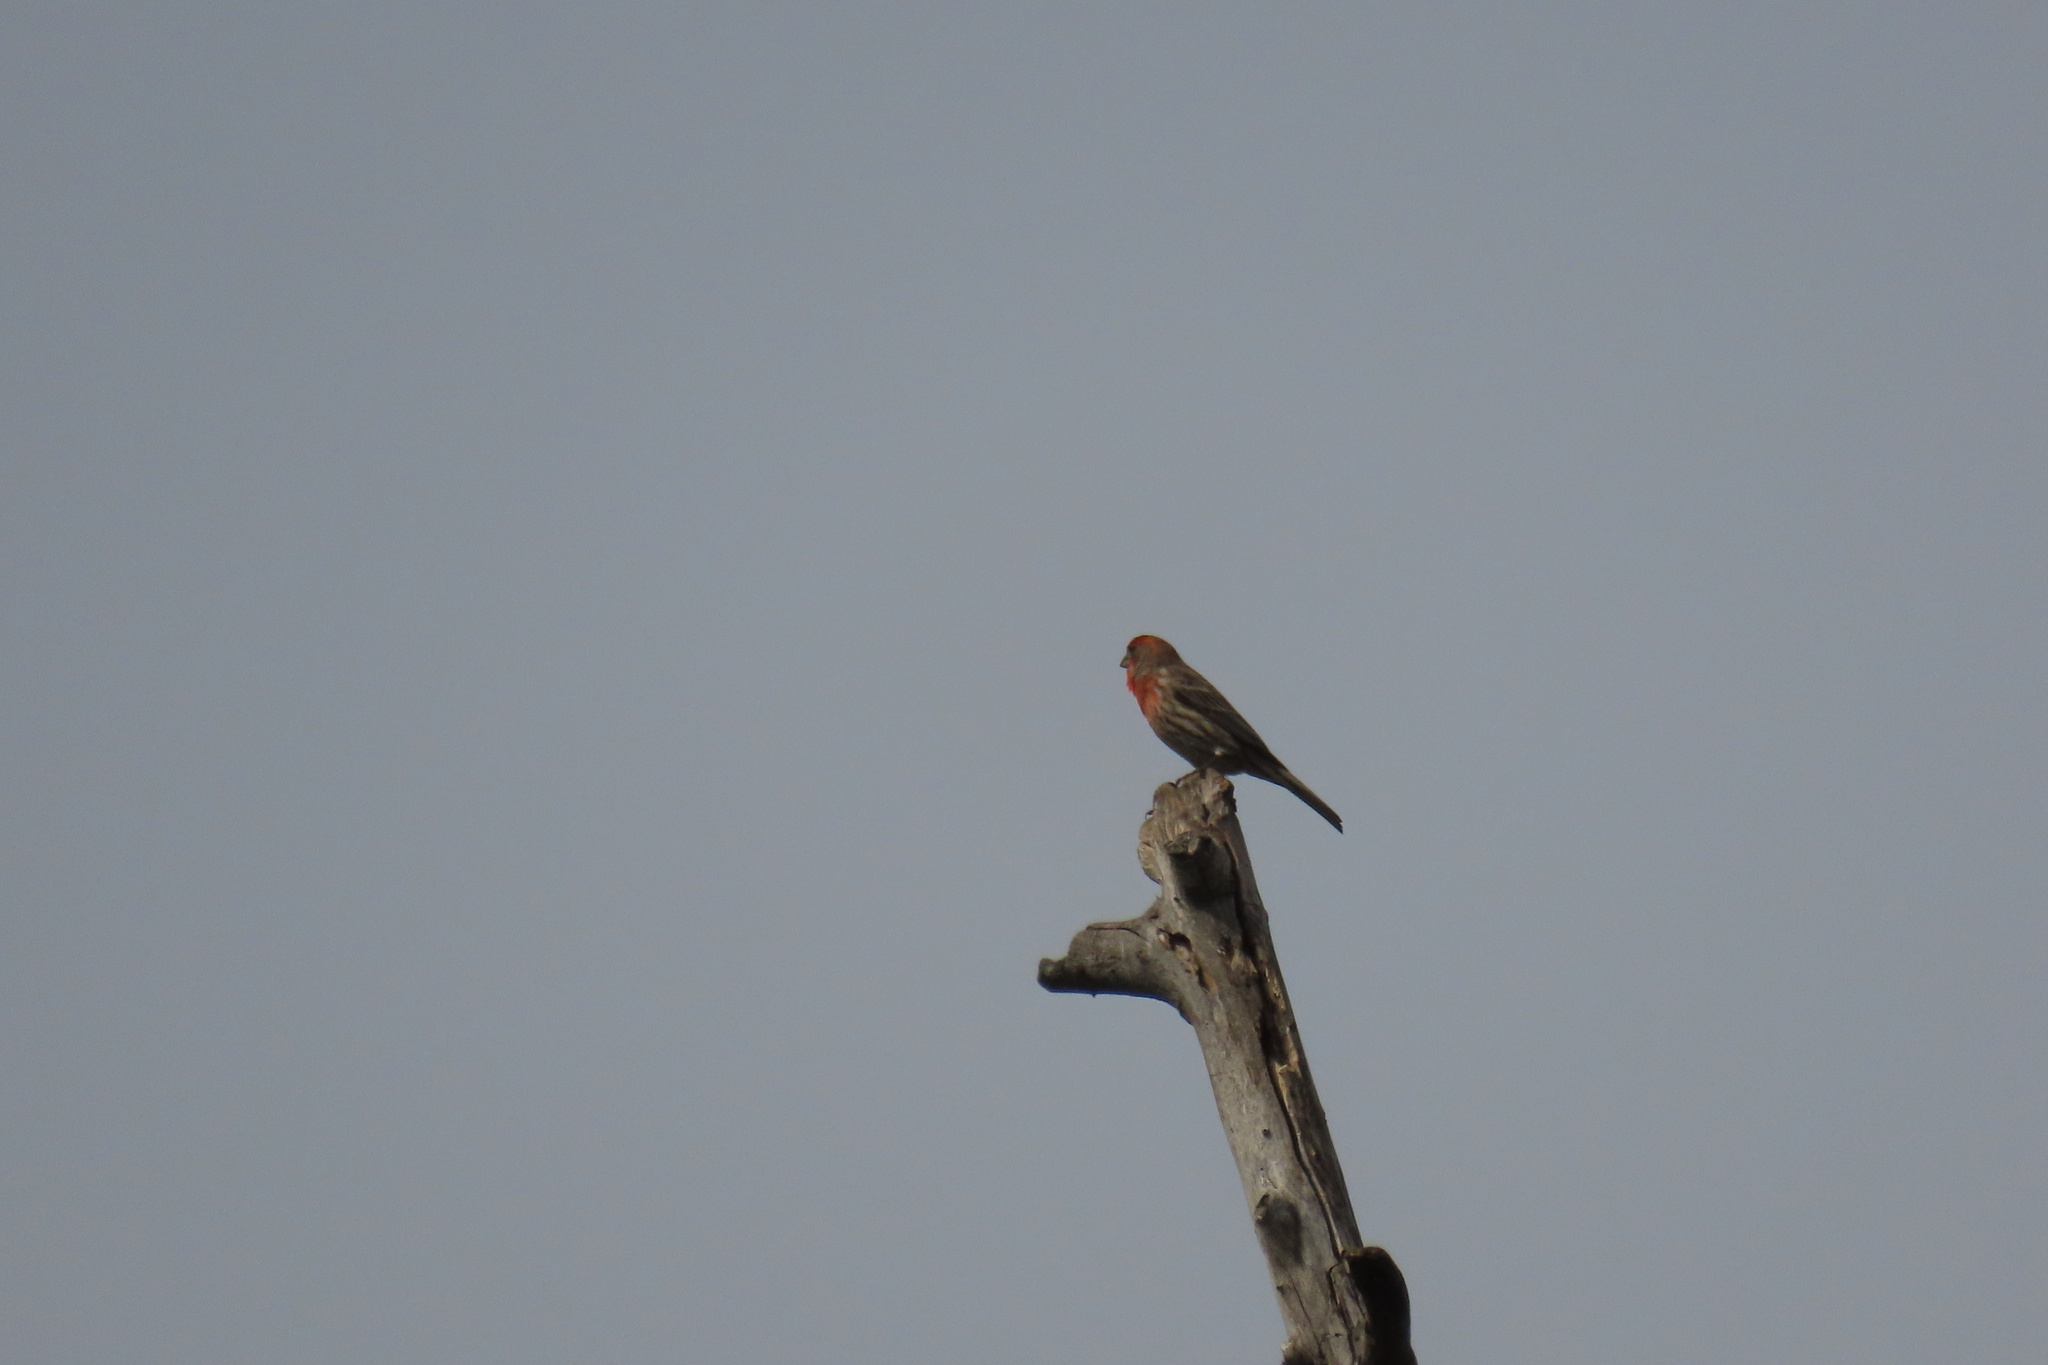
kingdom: Animalia
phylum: Chordata
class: Aves
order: Passeriformes
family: Fringillidae
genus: Haemorhous
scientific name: Haemorhous mexicanus
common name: House finch
